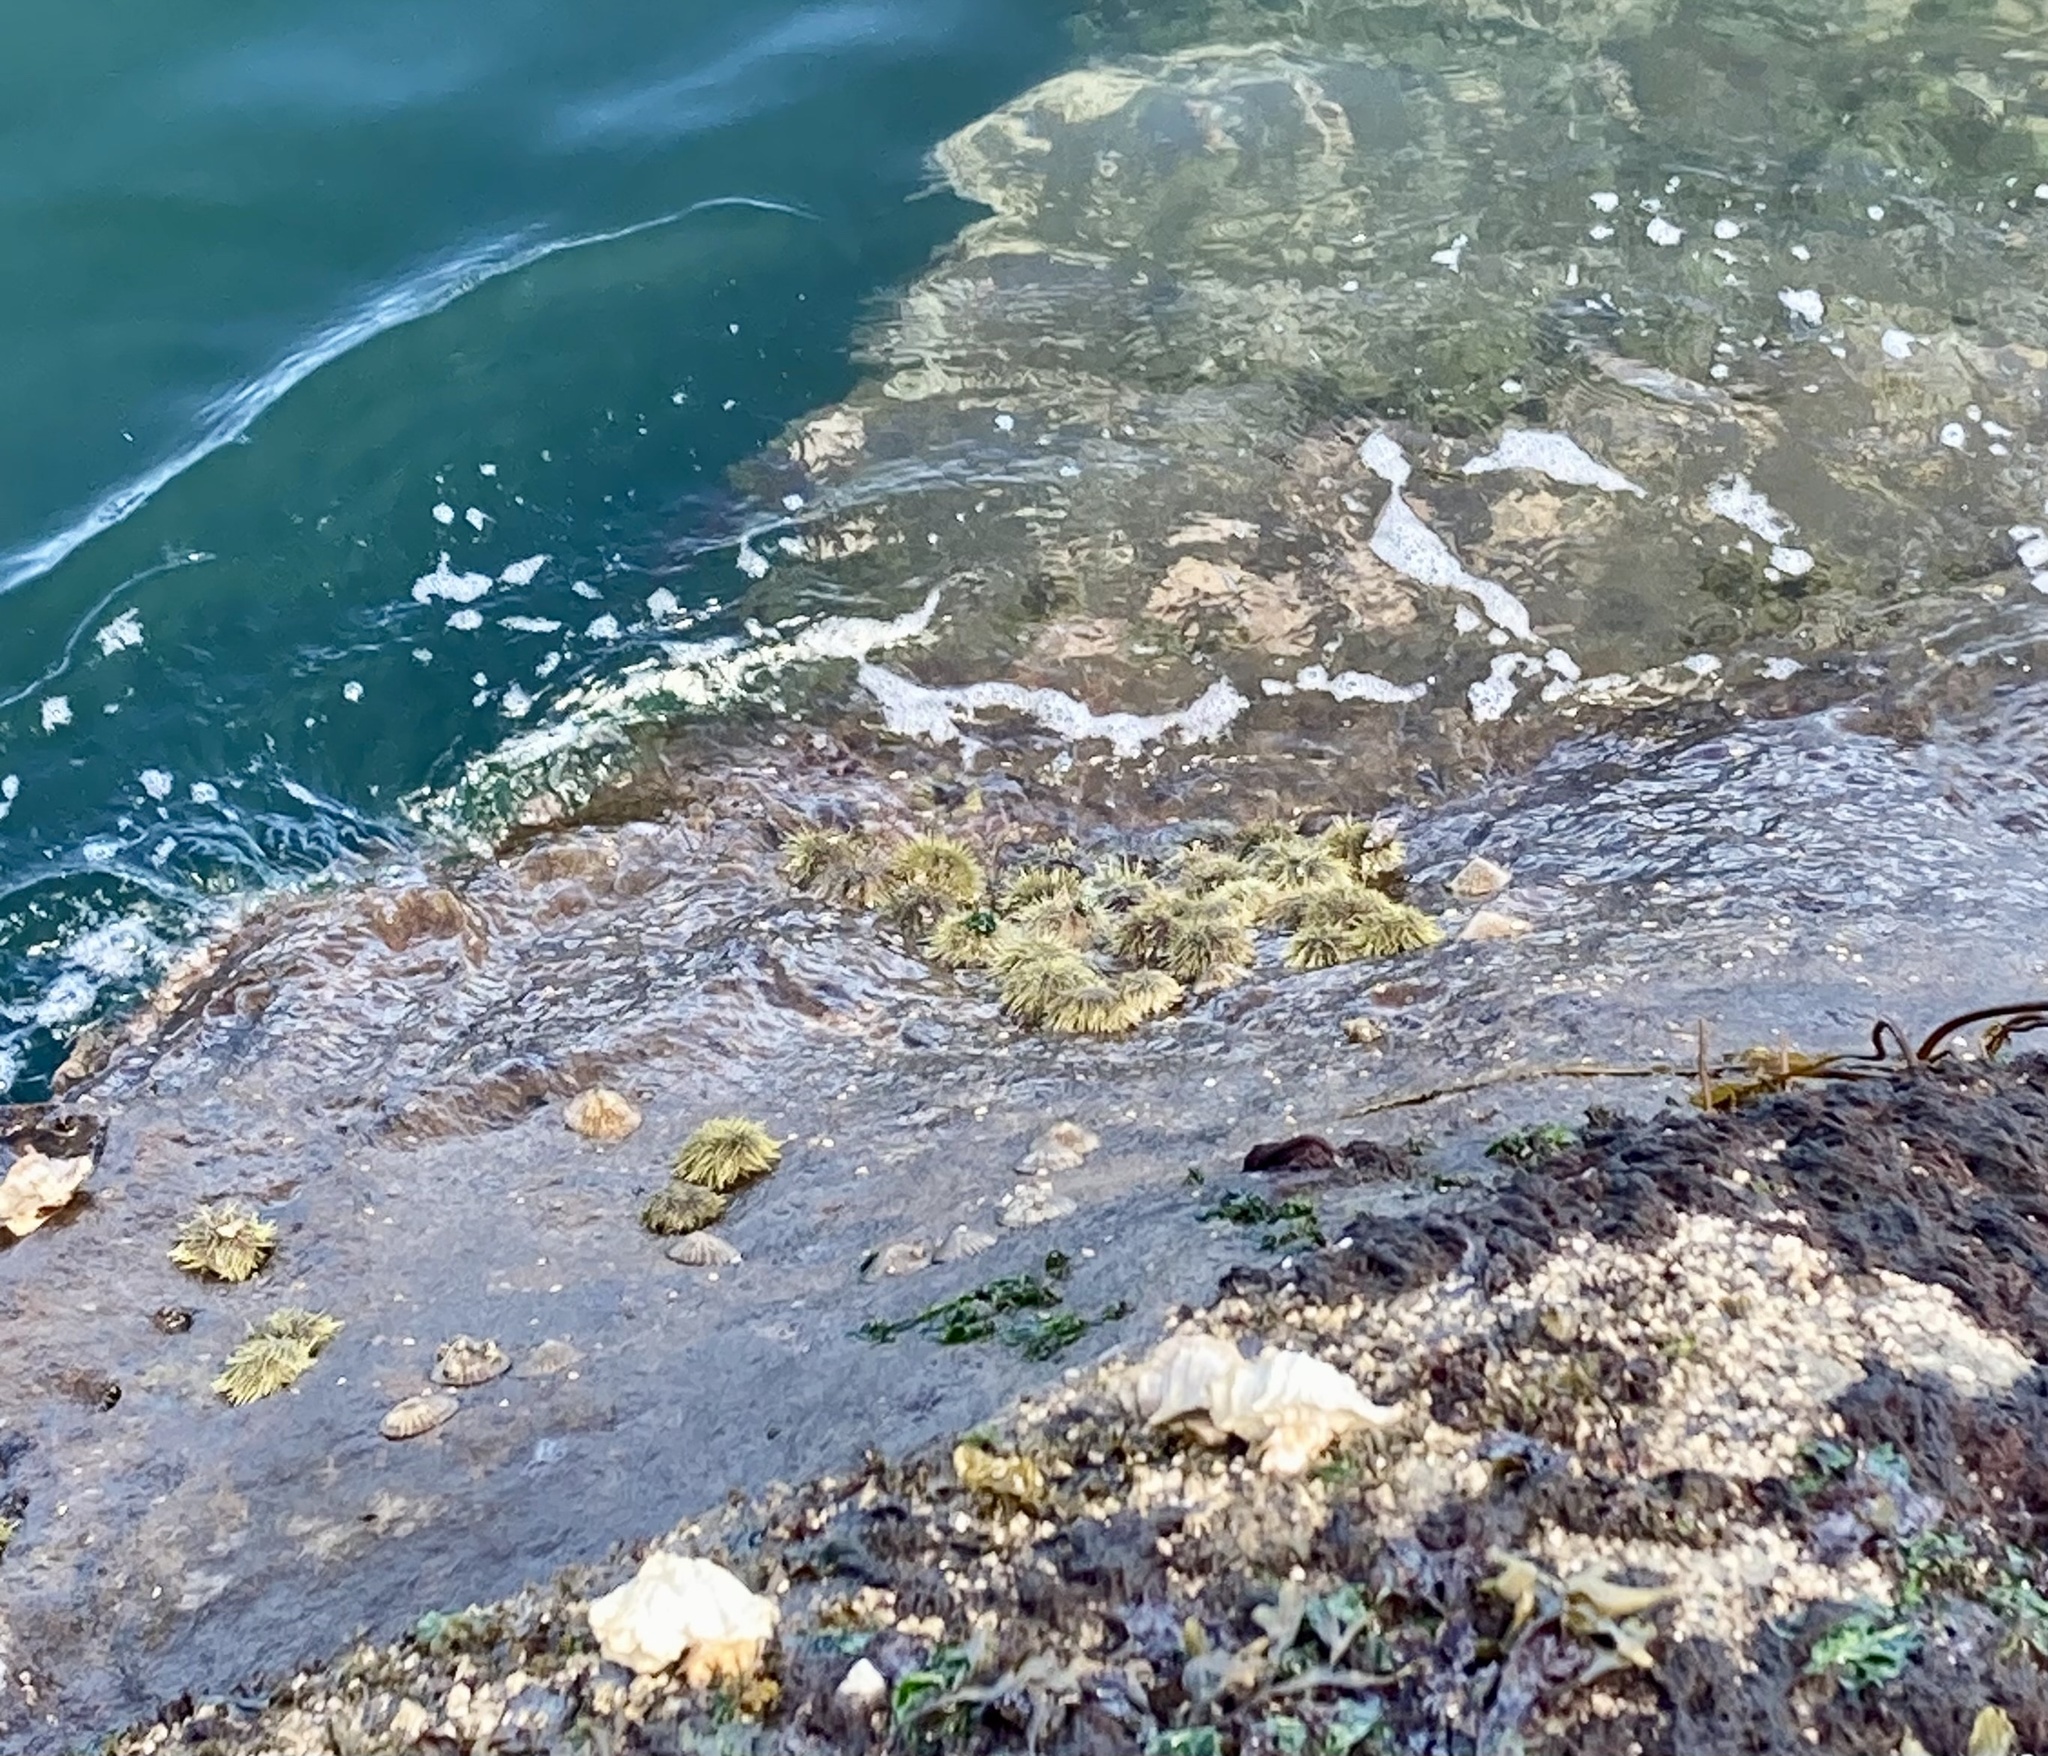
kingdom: Animalia
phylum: Echinodermata
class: Echinoidea
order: Camarodonta
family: Strongylocentrotidae
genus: Strongylocentrotus
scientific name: Strongylocentrotus droebachiensis
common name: Northern sea urchin
